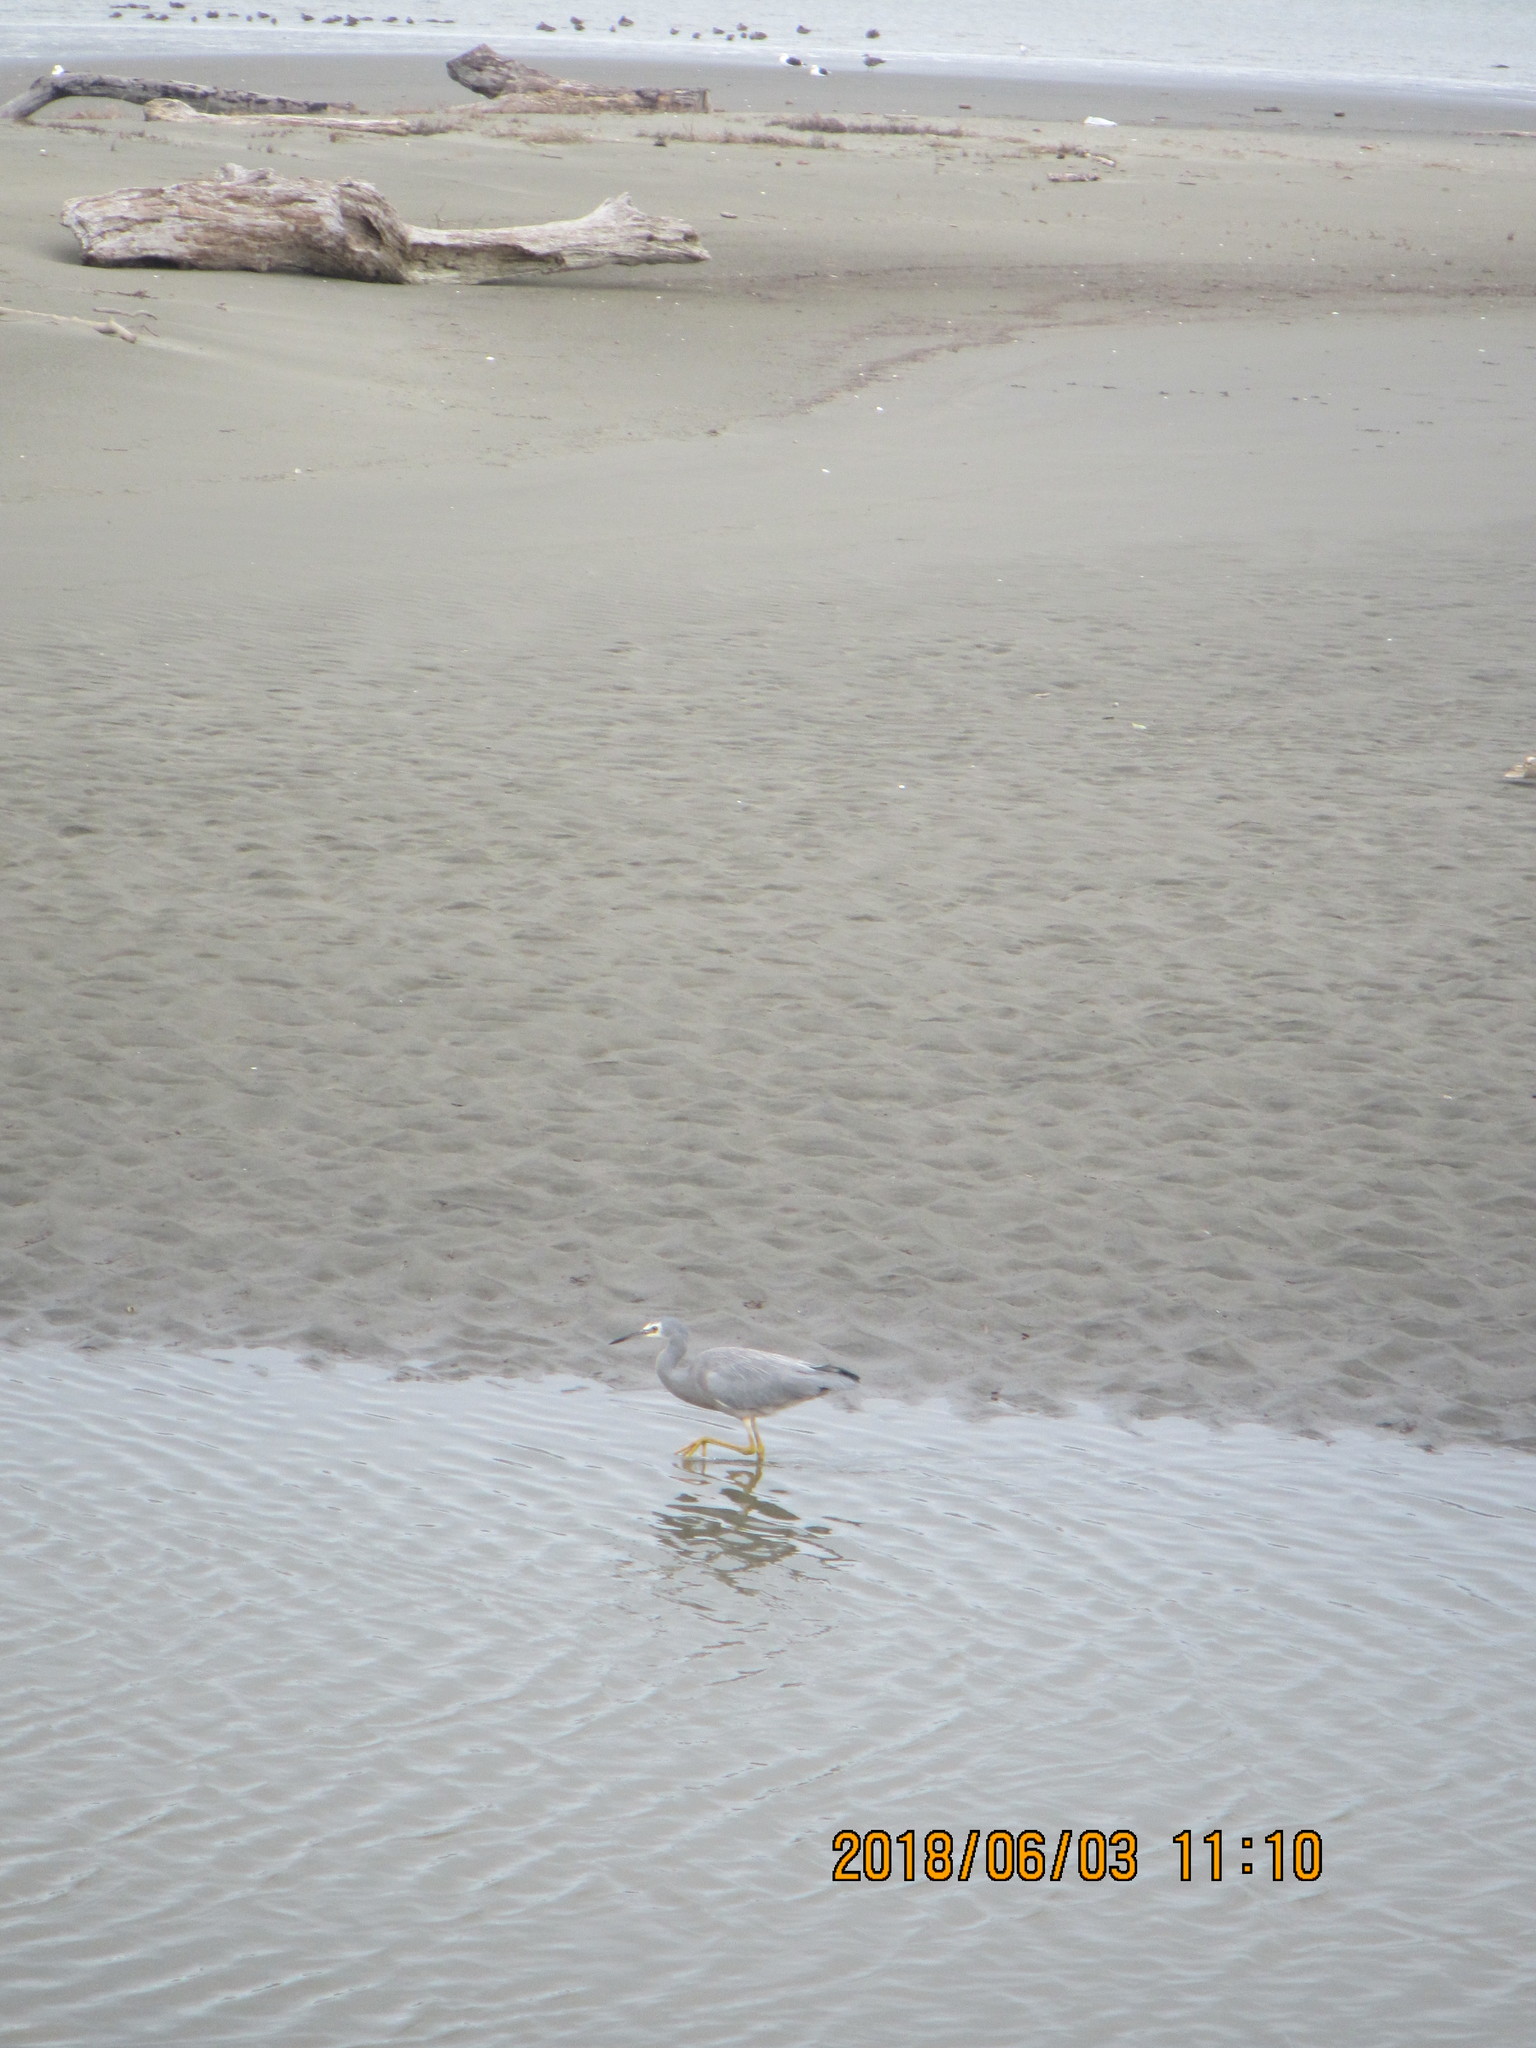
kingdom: Animalia
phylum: Chordata
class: Aves
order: Pelecaniformes
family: Ardeidae
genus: Egretta
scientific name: Egretta novaehollandiae
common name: White-faced heron
